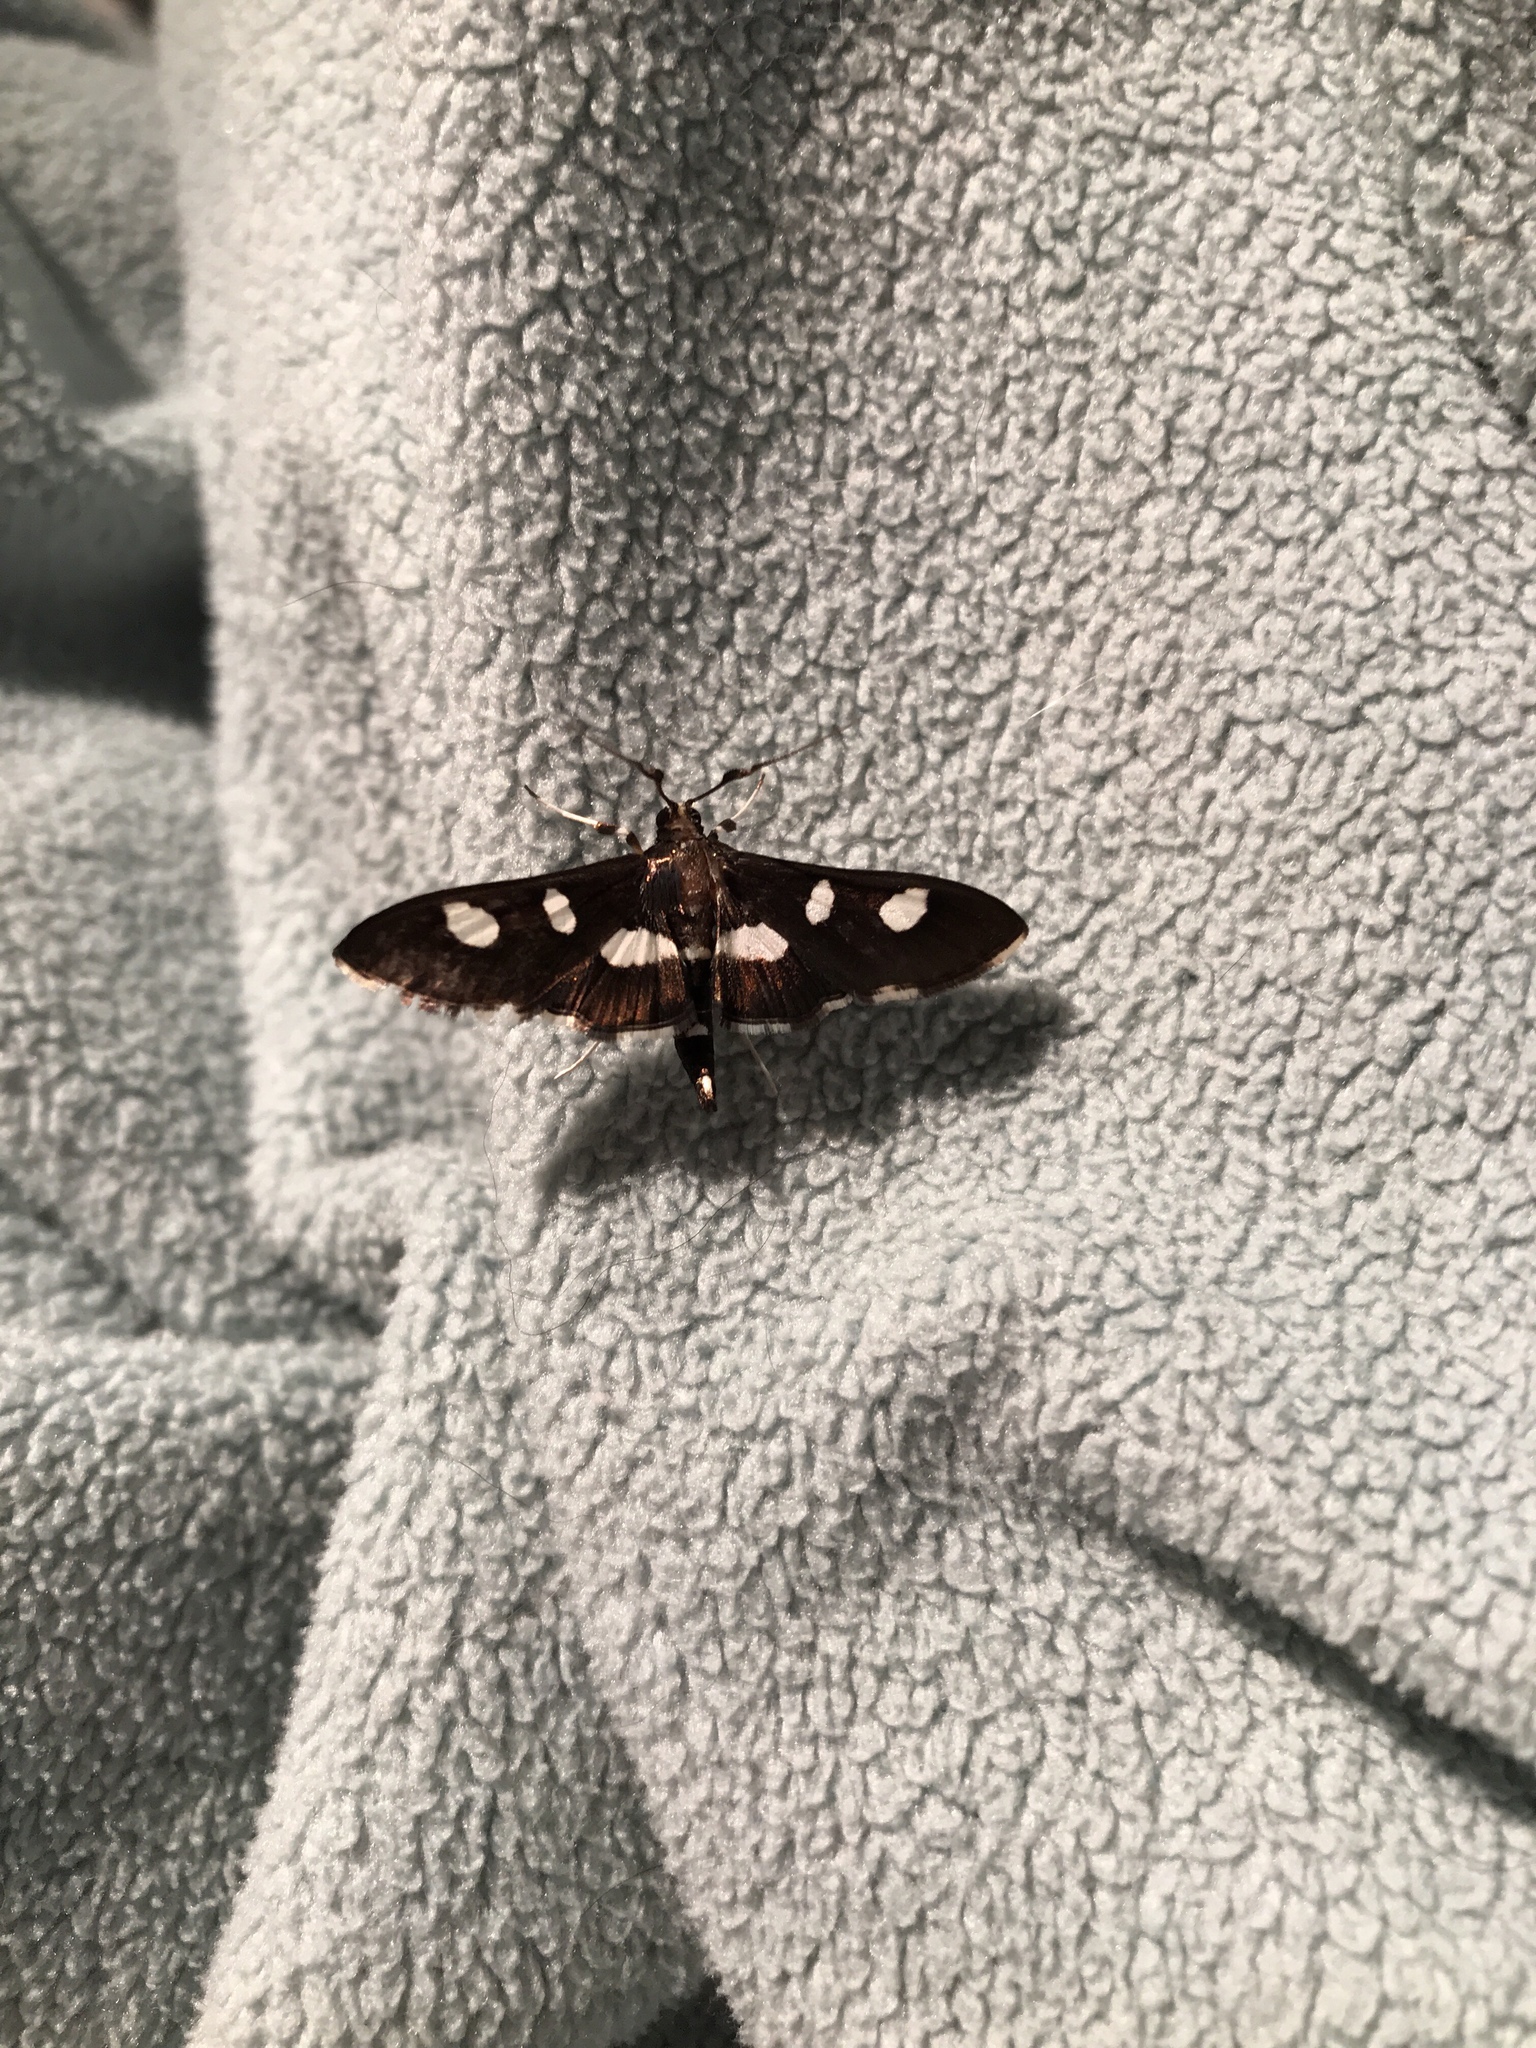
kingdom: Animalia
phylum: Arthropoda
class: Insecta
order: Lepidoptera
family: Crambidae
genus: Desmia
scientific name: Desmia
